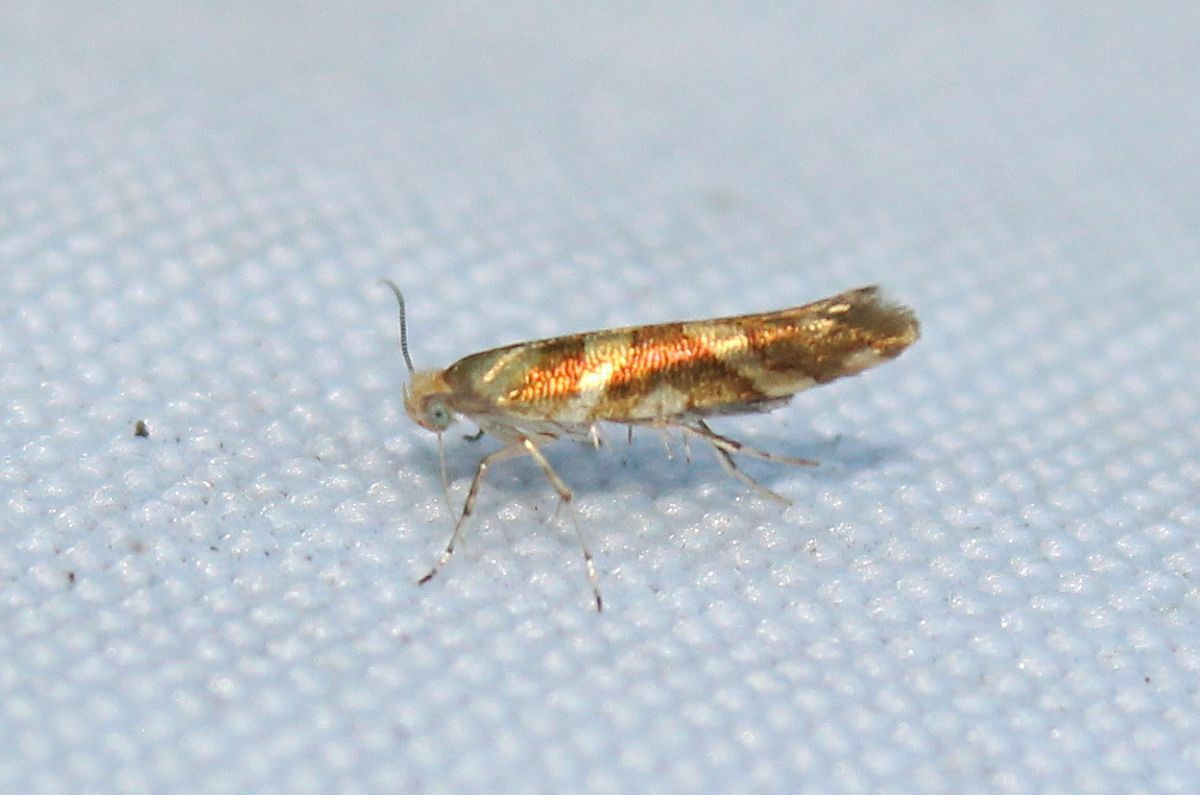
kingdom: Animalia
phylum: Arthropoda
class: Insecta
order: Lepidoptera
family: Argyresthiidae
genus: Argyresthia
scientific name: Argyresthia goedartella
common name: Golden argent
